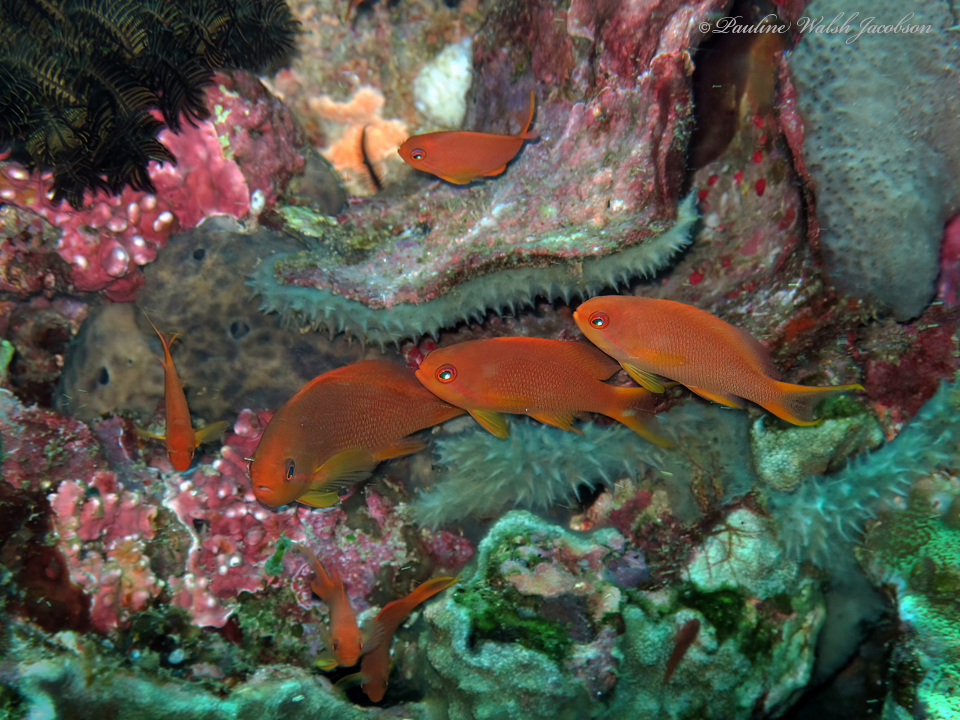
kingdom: Animalia
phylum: Chordata
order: Perciformes
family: Serranidae
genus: Pseudanthias
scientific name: Pseudanthias squamipinnis
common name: Scalefin anthias
